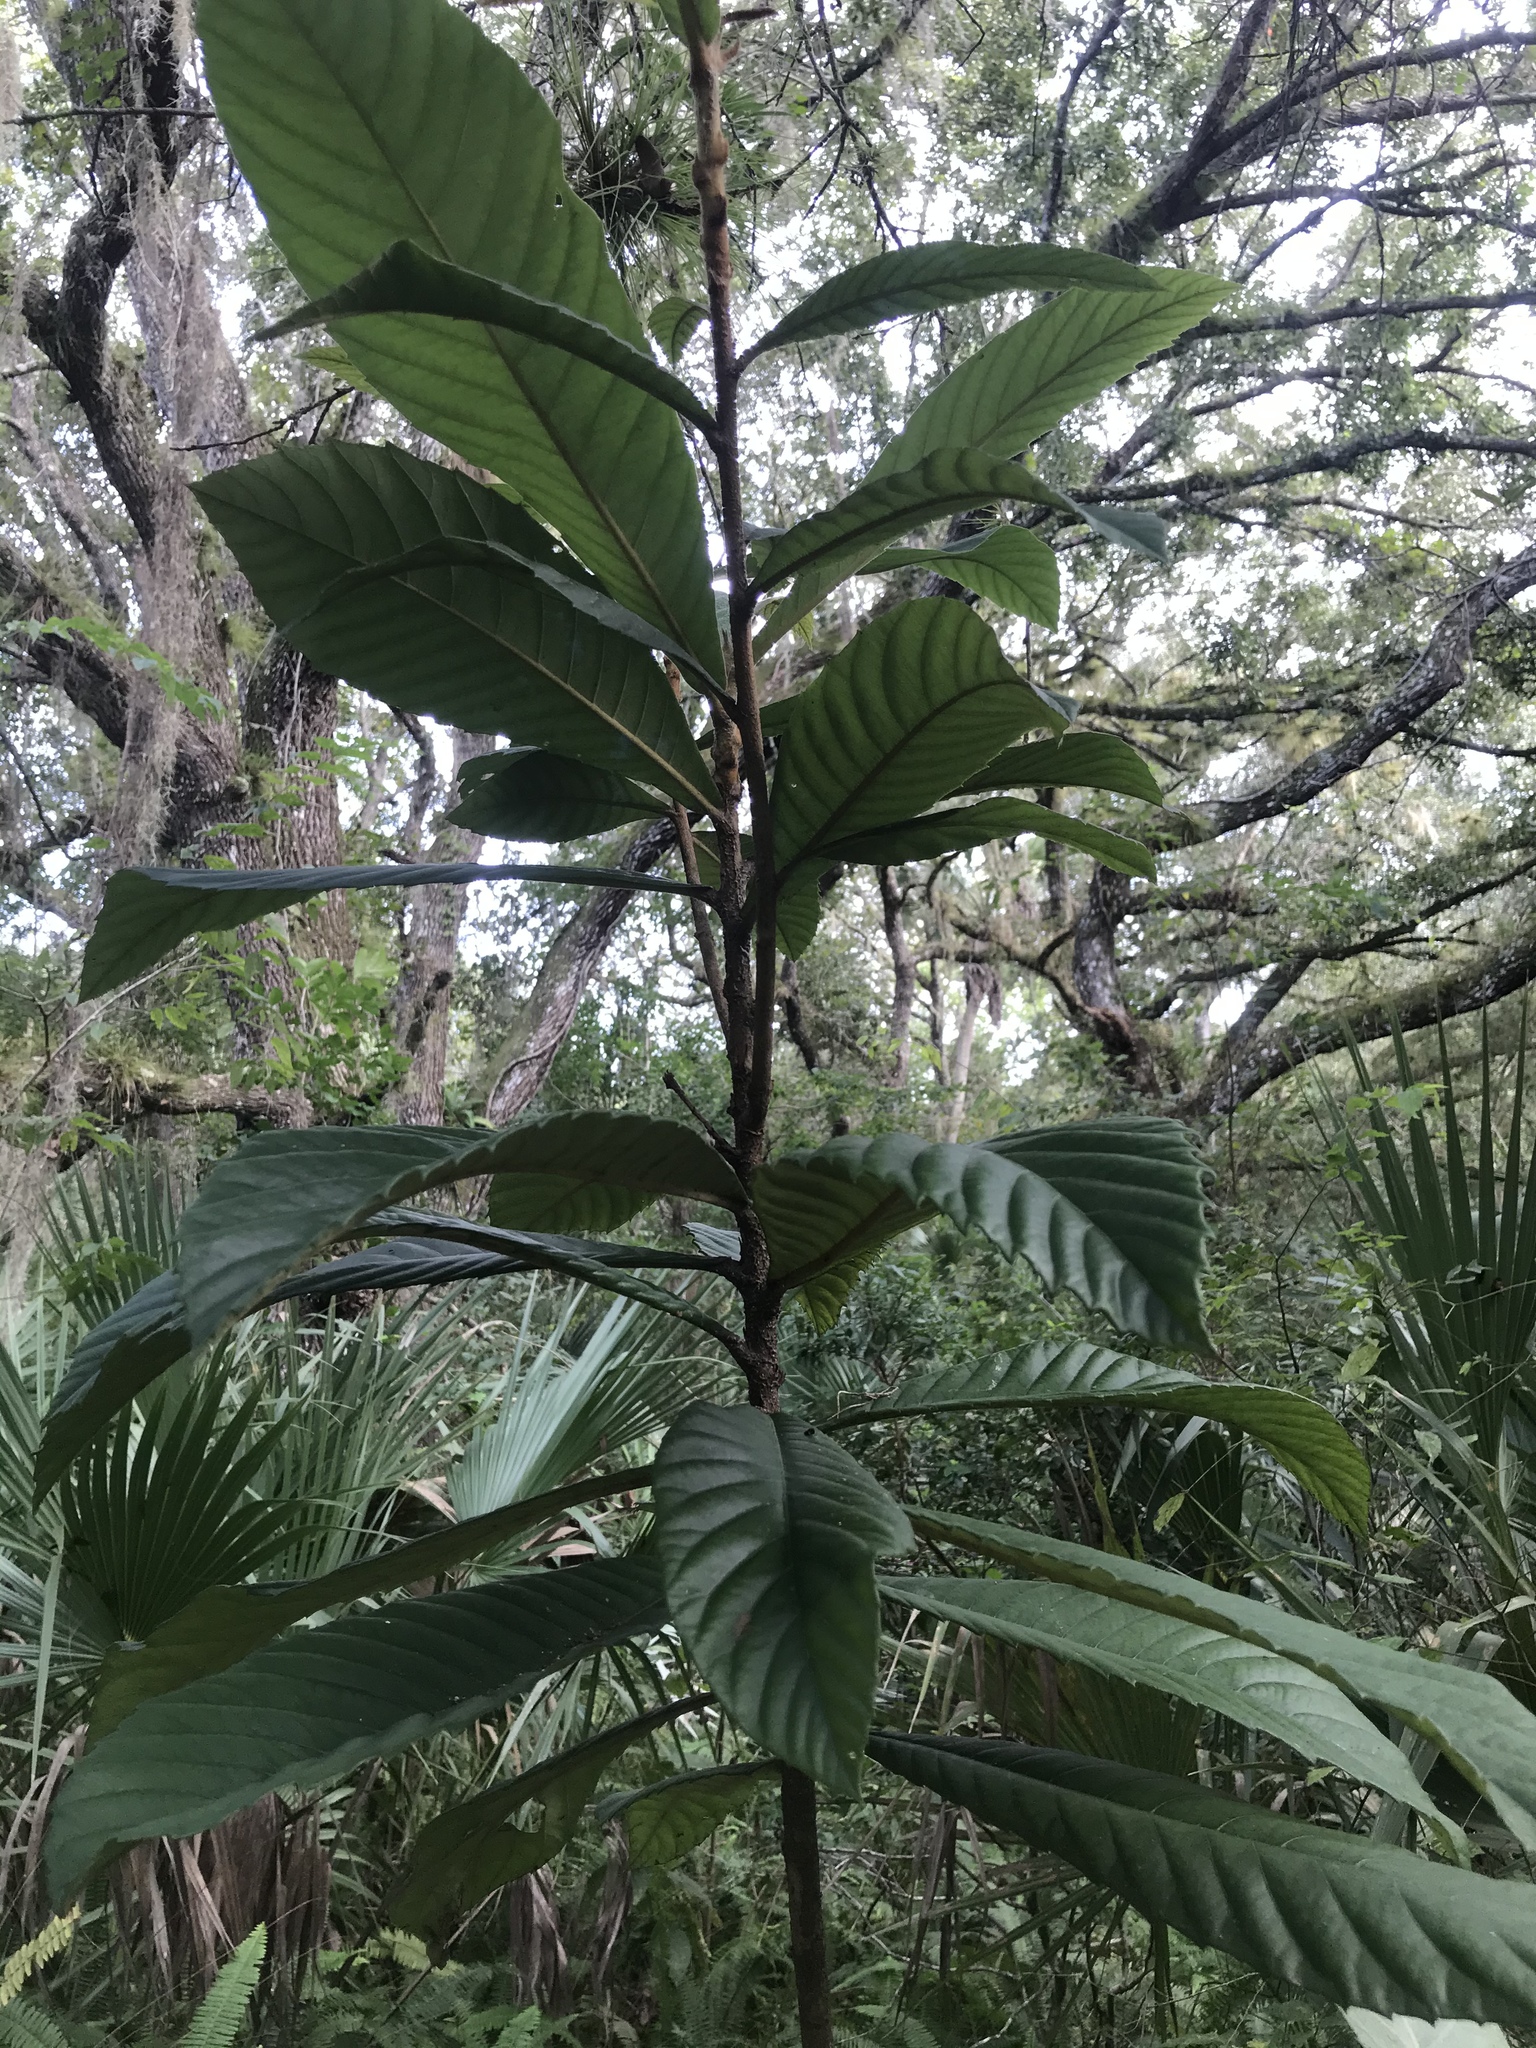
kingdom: Plantae
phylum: Tracheophyta
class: Magnoliopsida
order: Rosales
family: Rosaceae
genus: Rhaphiolepis
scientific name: Rhaphiolepis bibas
